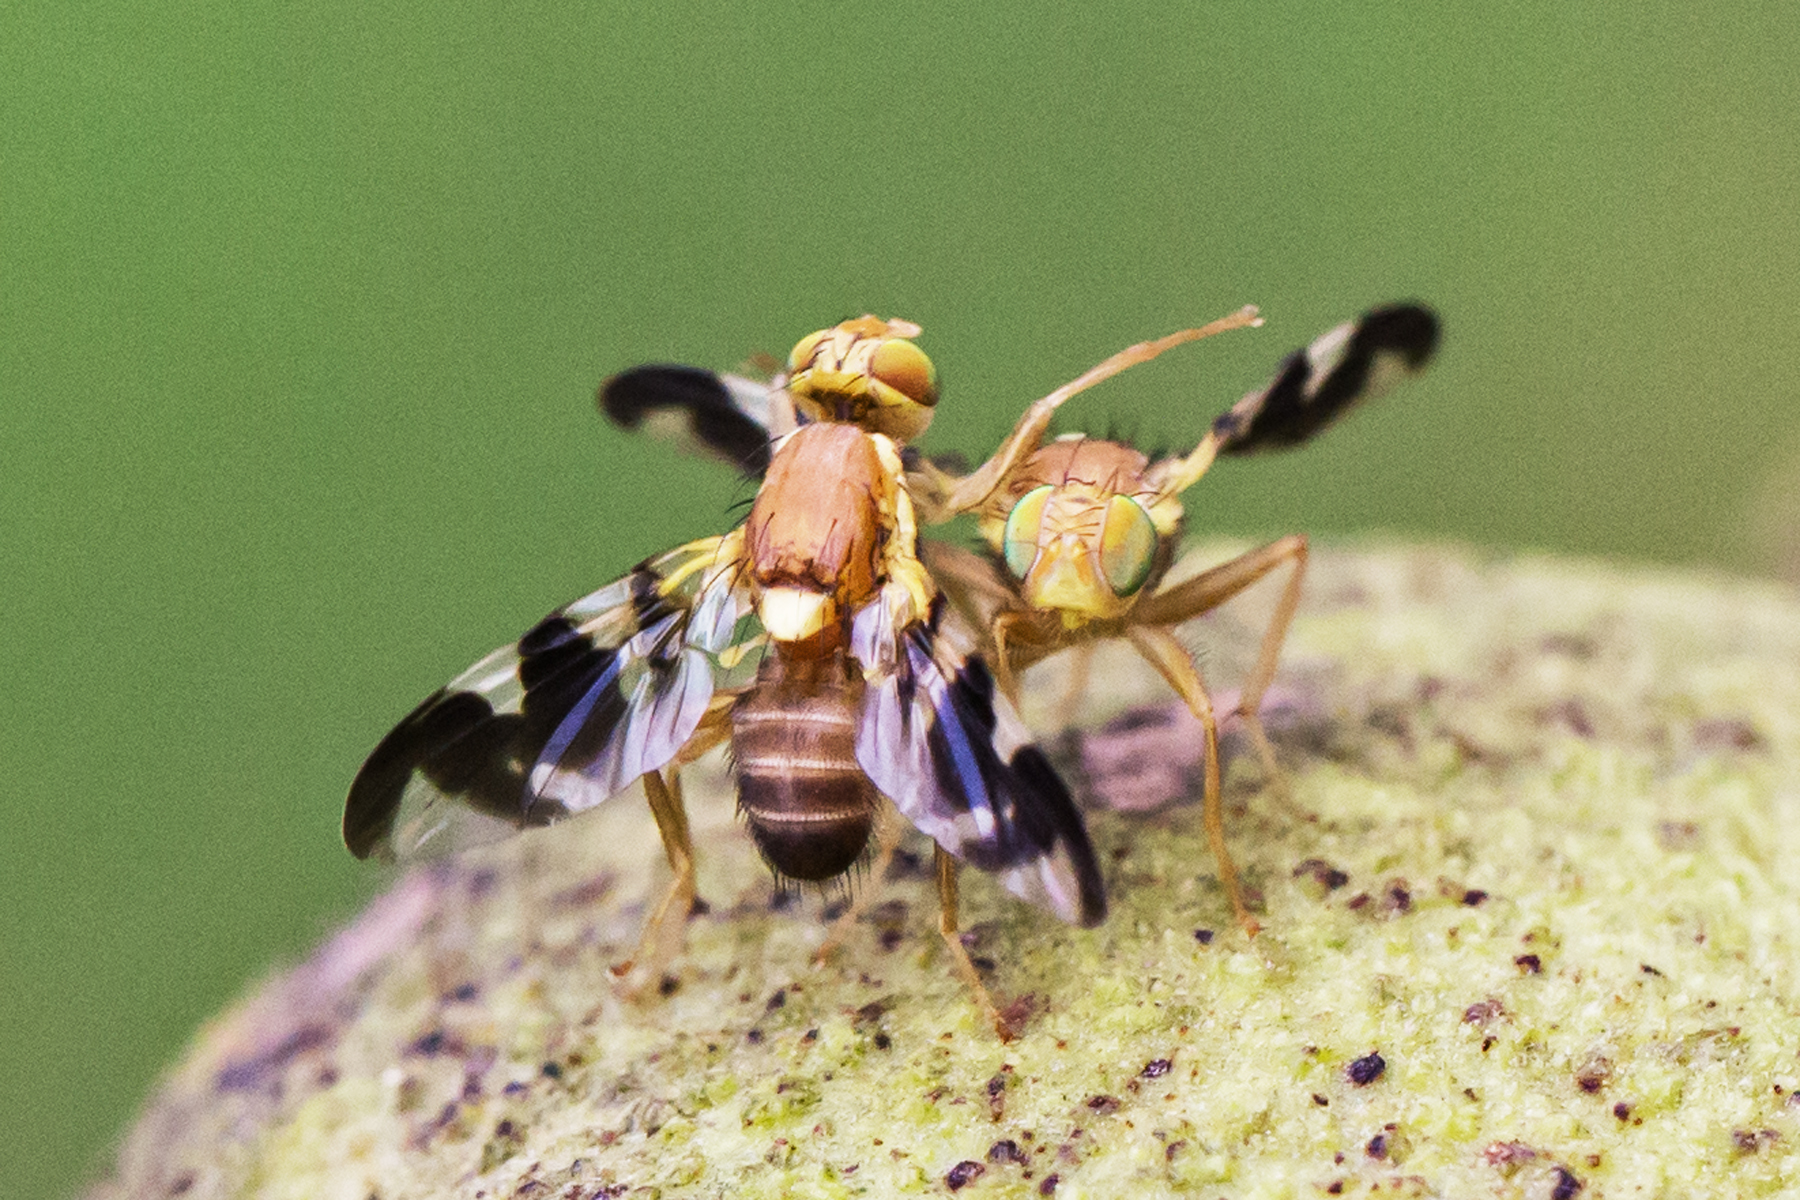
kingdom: Animalia
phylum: Arthropoda
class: Insecta
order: Diptera
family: Tephritidae
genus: Rhagoletis
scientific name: Rhagoletis suavis
